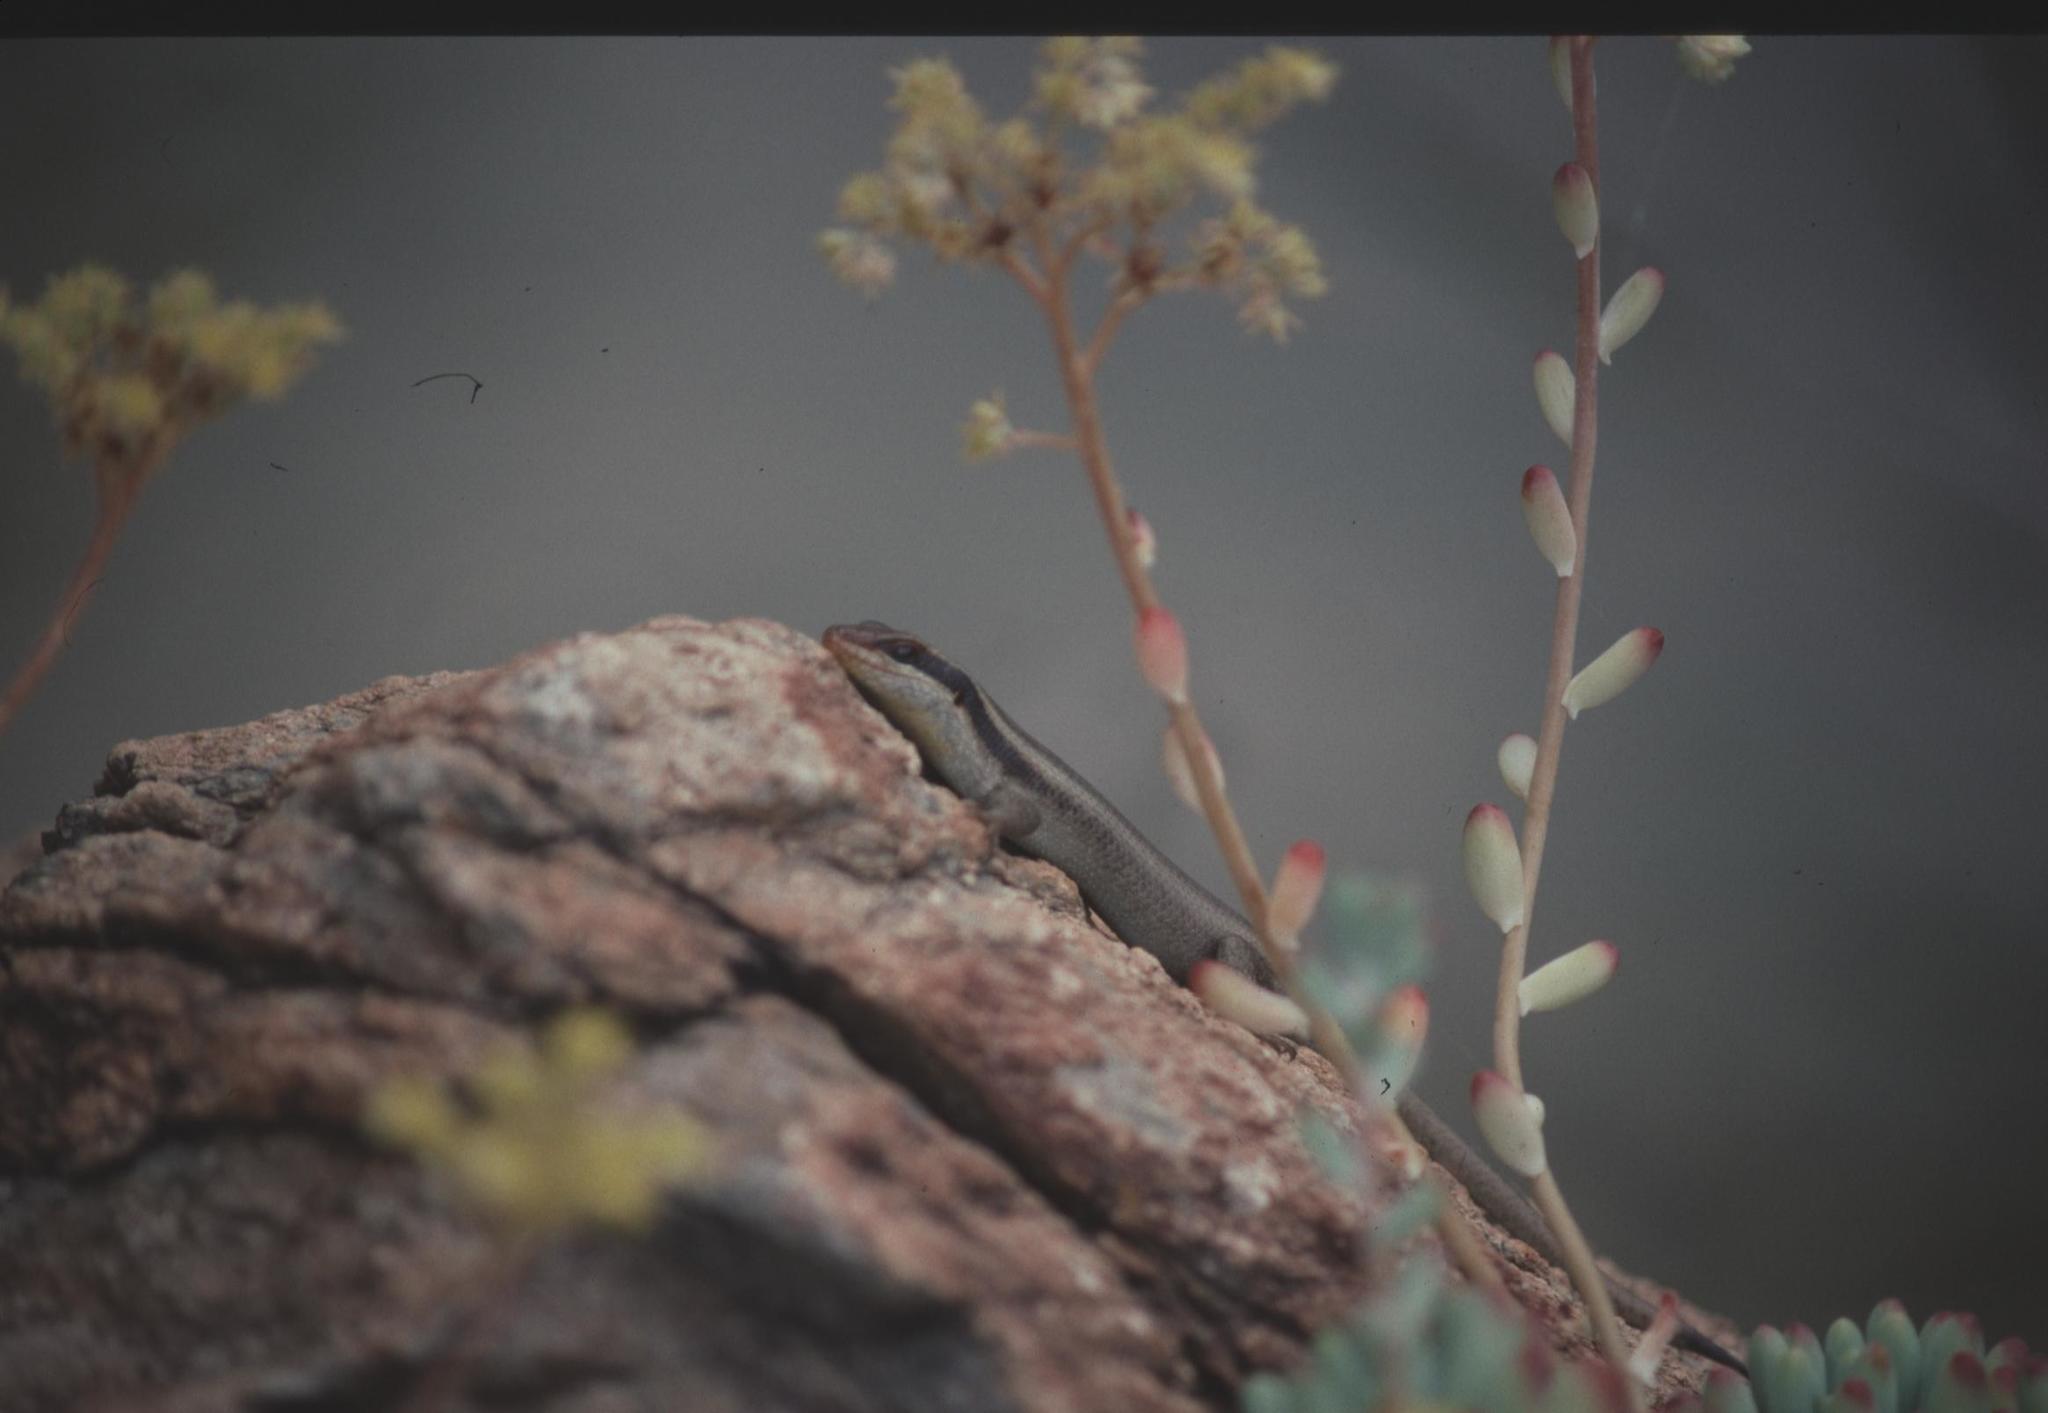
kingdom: Animalia
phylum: Chordata
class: Squamata
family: Scincidae
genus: Trachylepis
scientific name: Trachylepis wahlbergii
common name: Wahlberg’s striped skink
